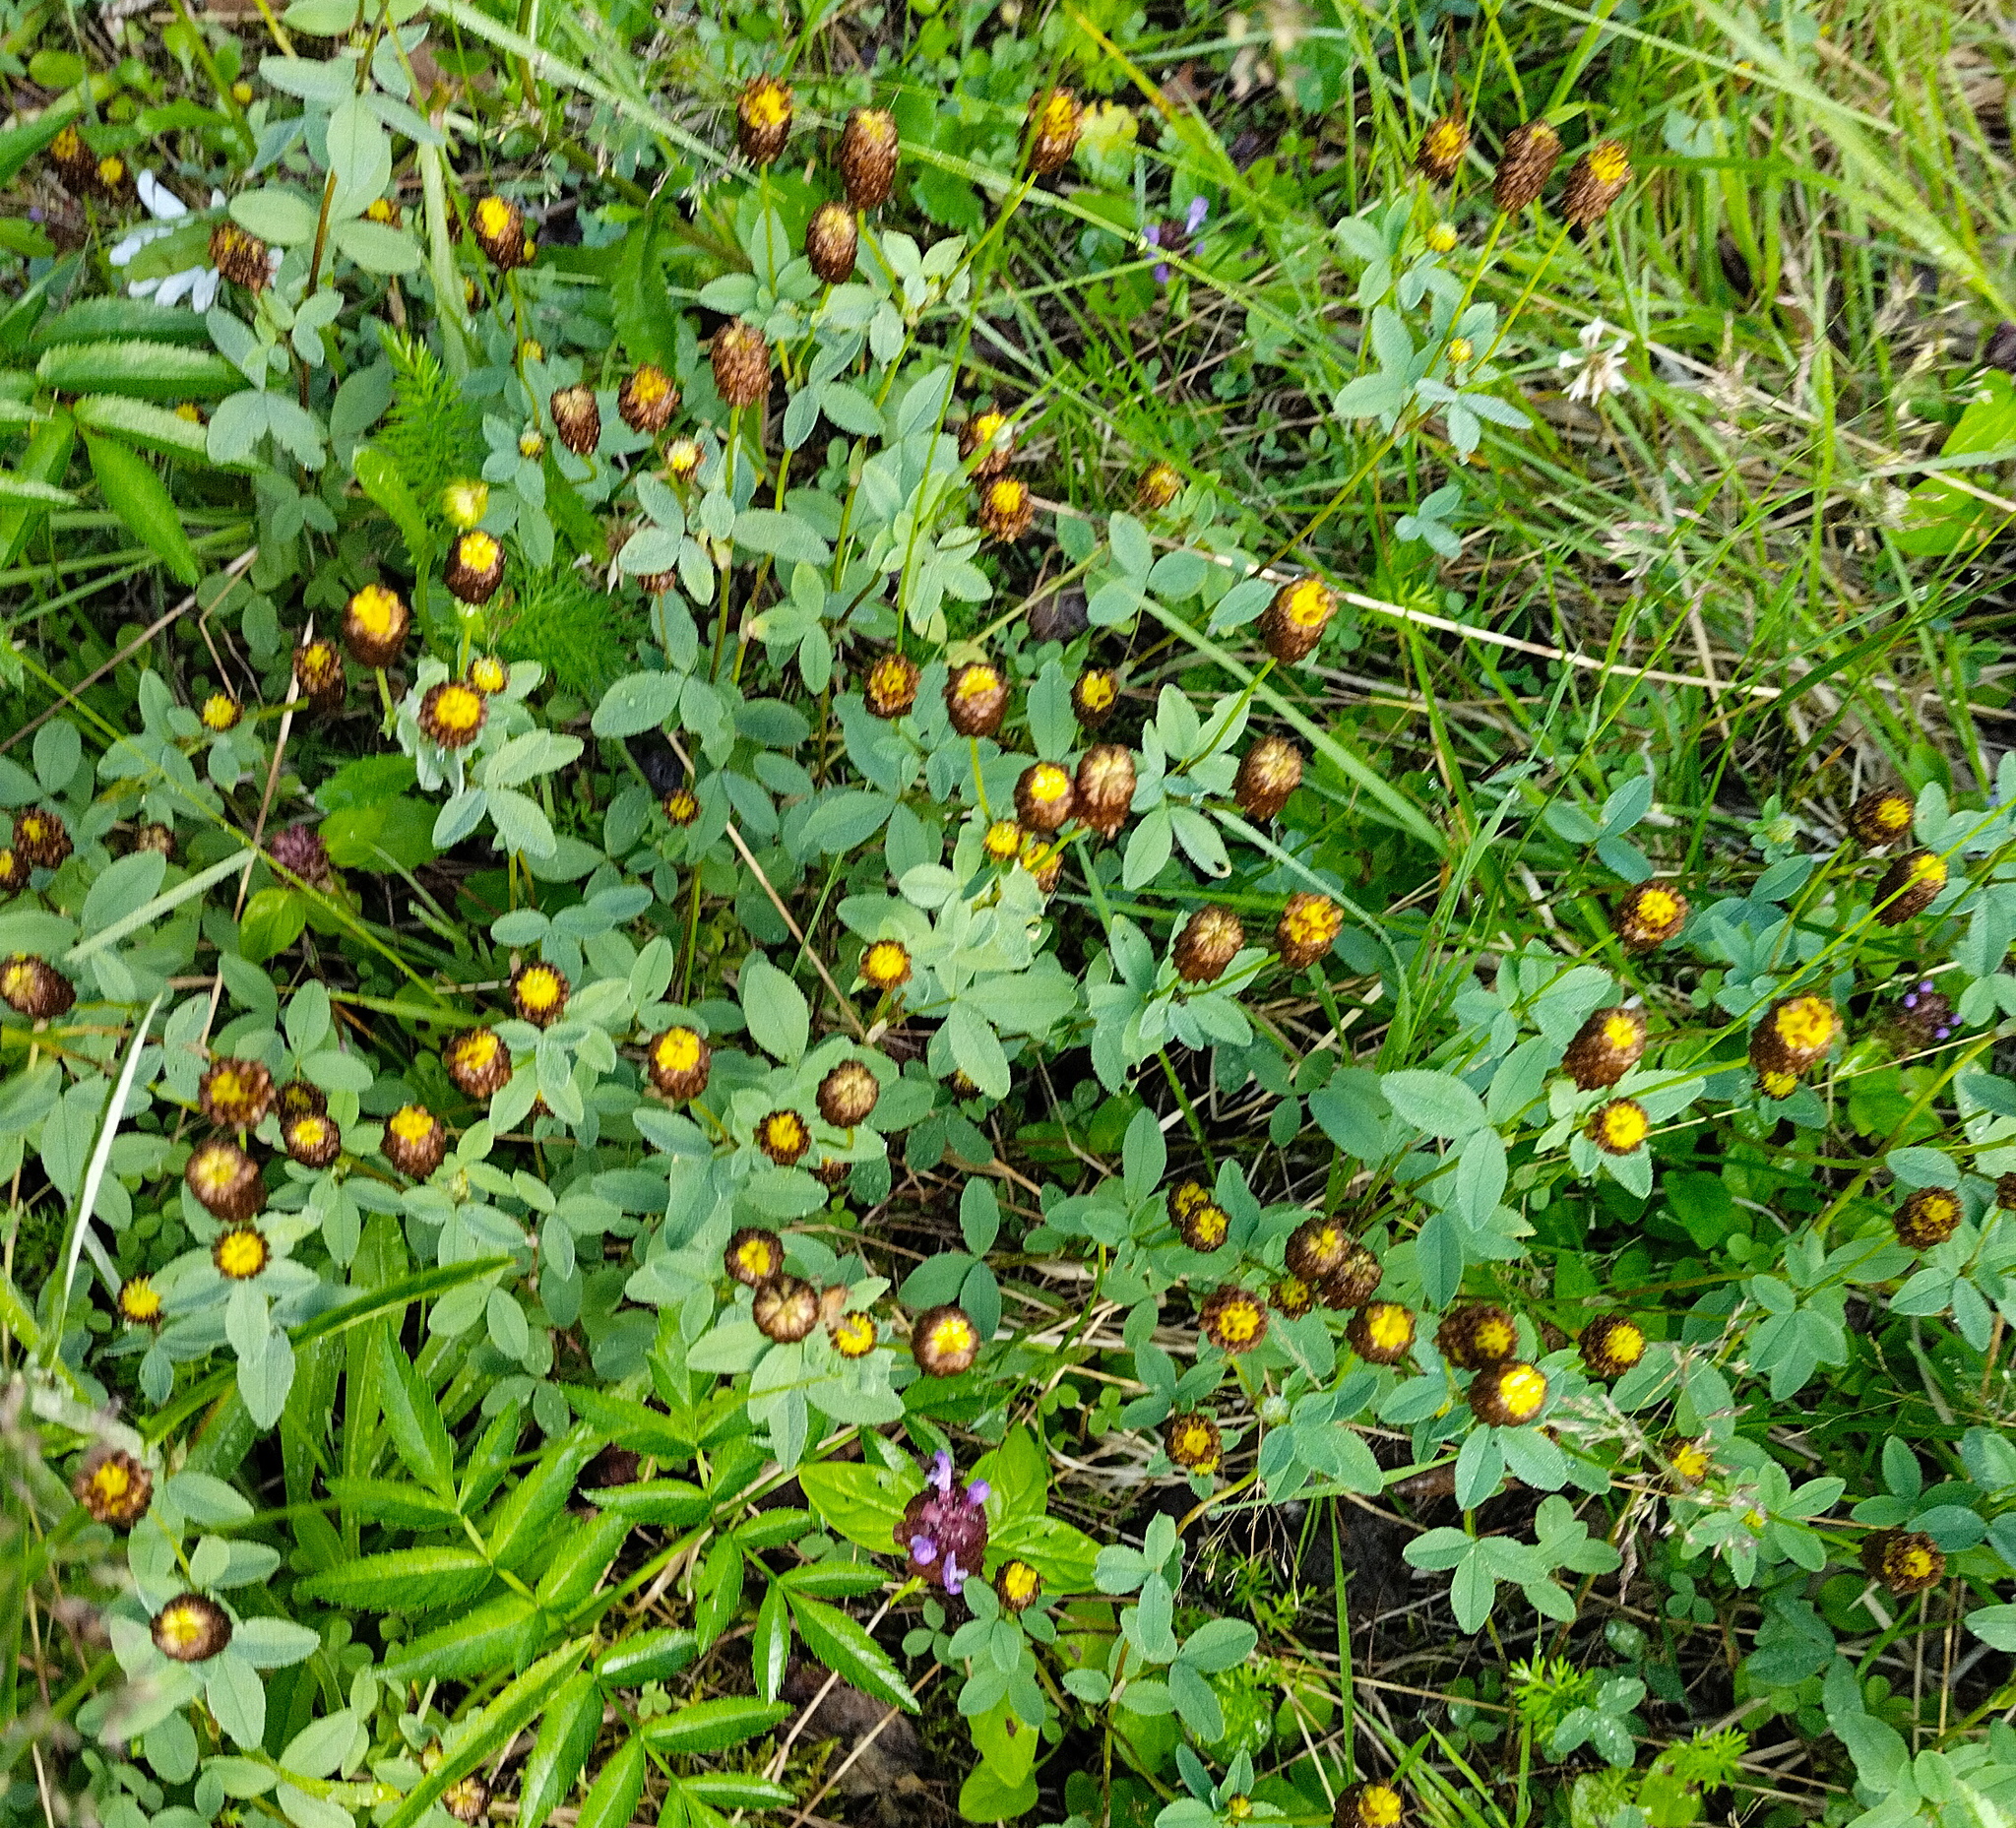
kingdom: Plantae
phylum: Tracheophyta
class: Magnoliopsida
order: Fabales
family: Fabaceae
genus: Trifolium
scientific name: Trifolium spadiceum
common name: Brown moor clover
